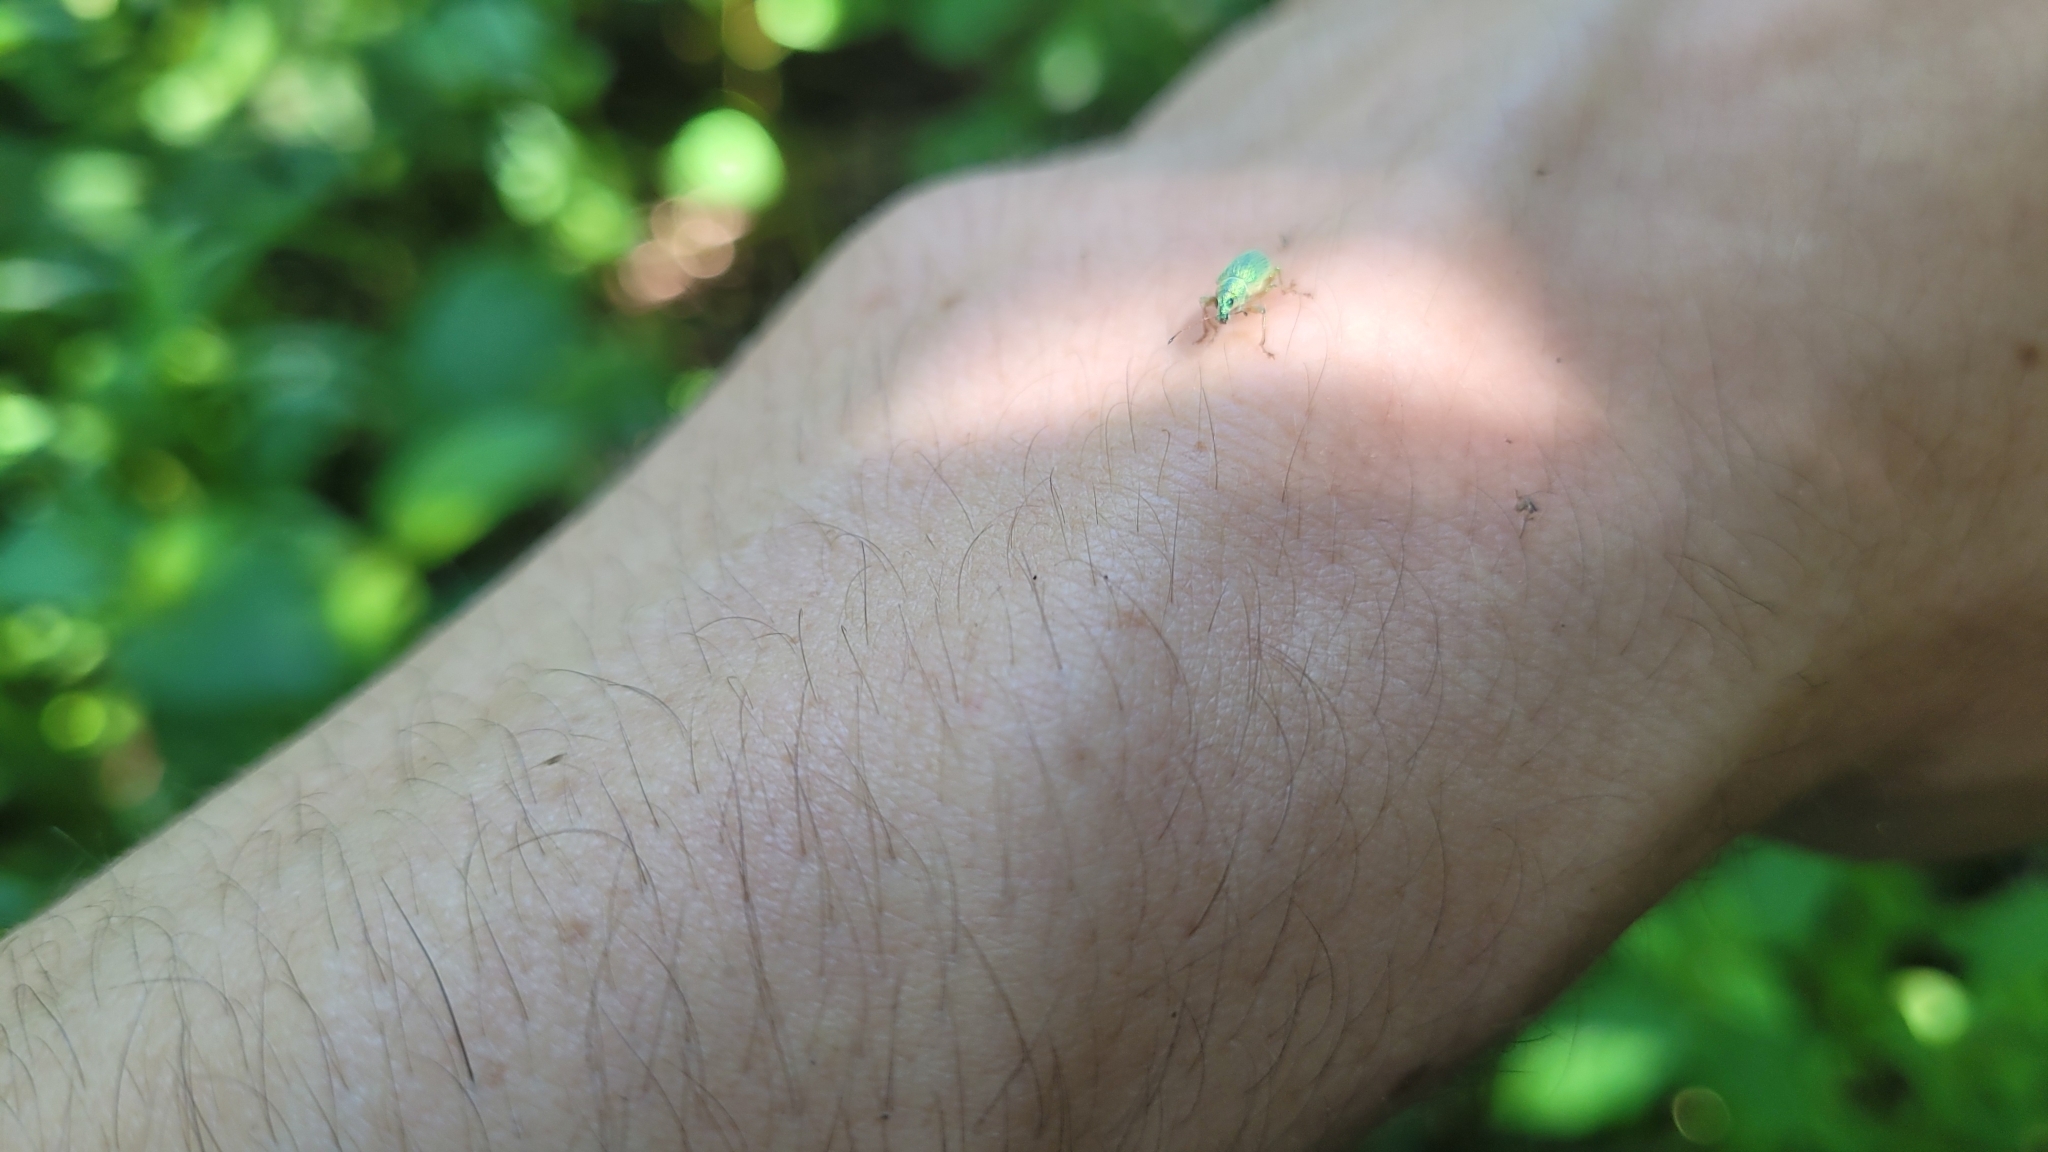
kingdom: Animalia
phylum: Arthropoda
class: Insecta
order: Coleoptera
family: Curculionidae
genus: Polydrusus
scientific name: Polydrusus formosus
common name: Weevil
